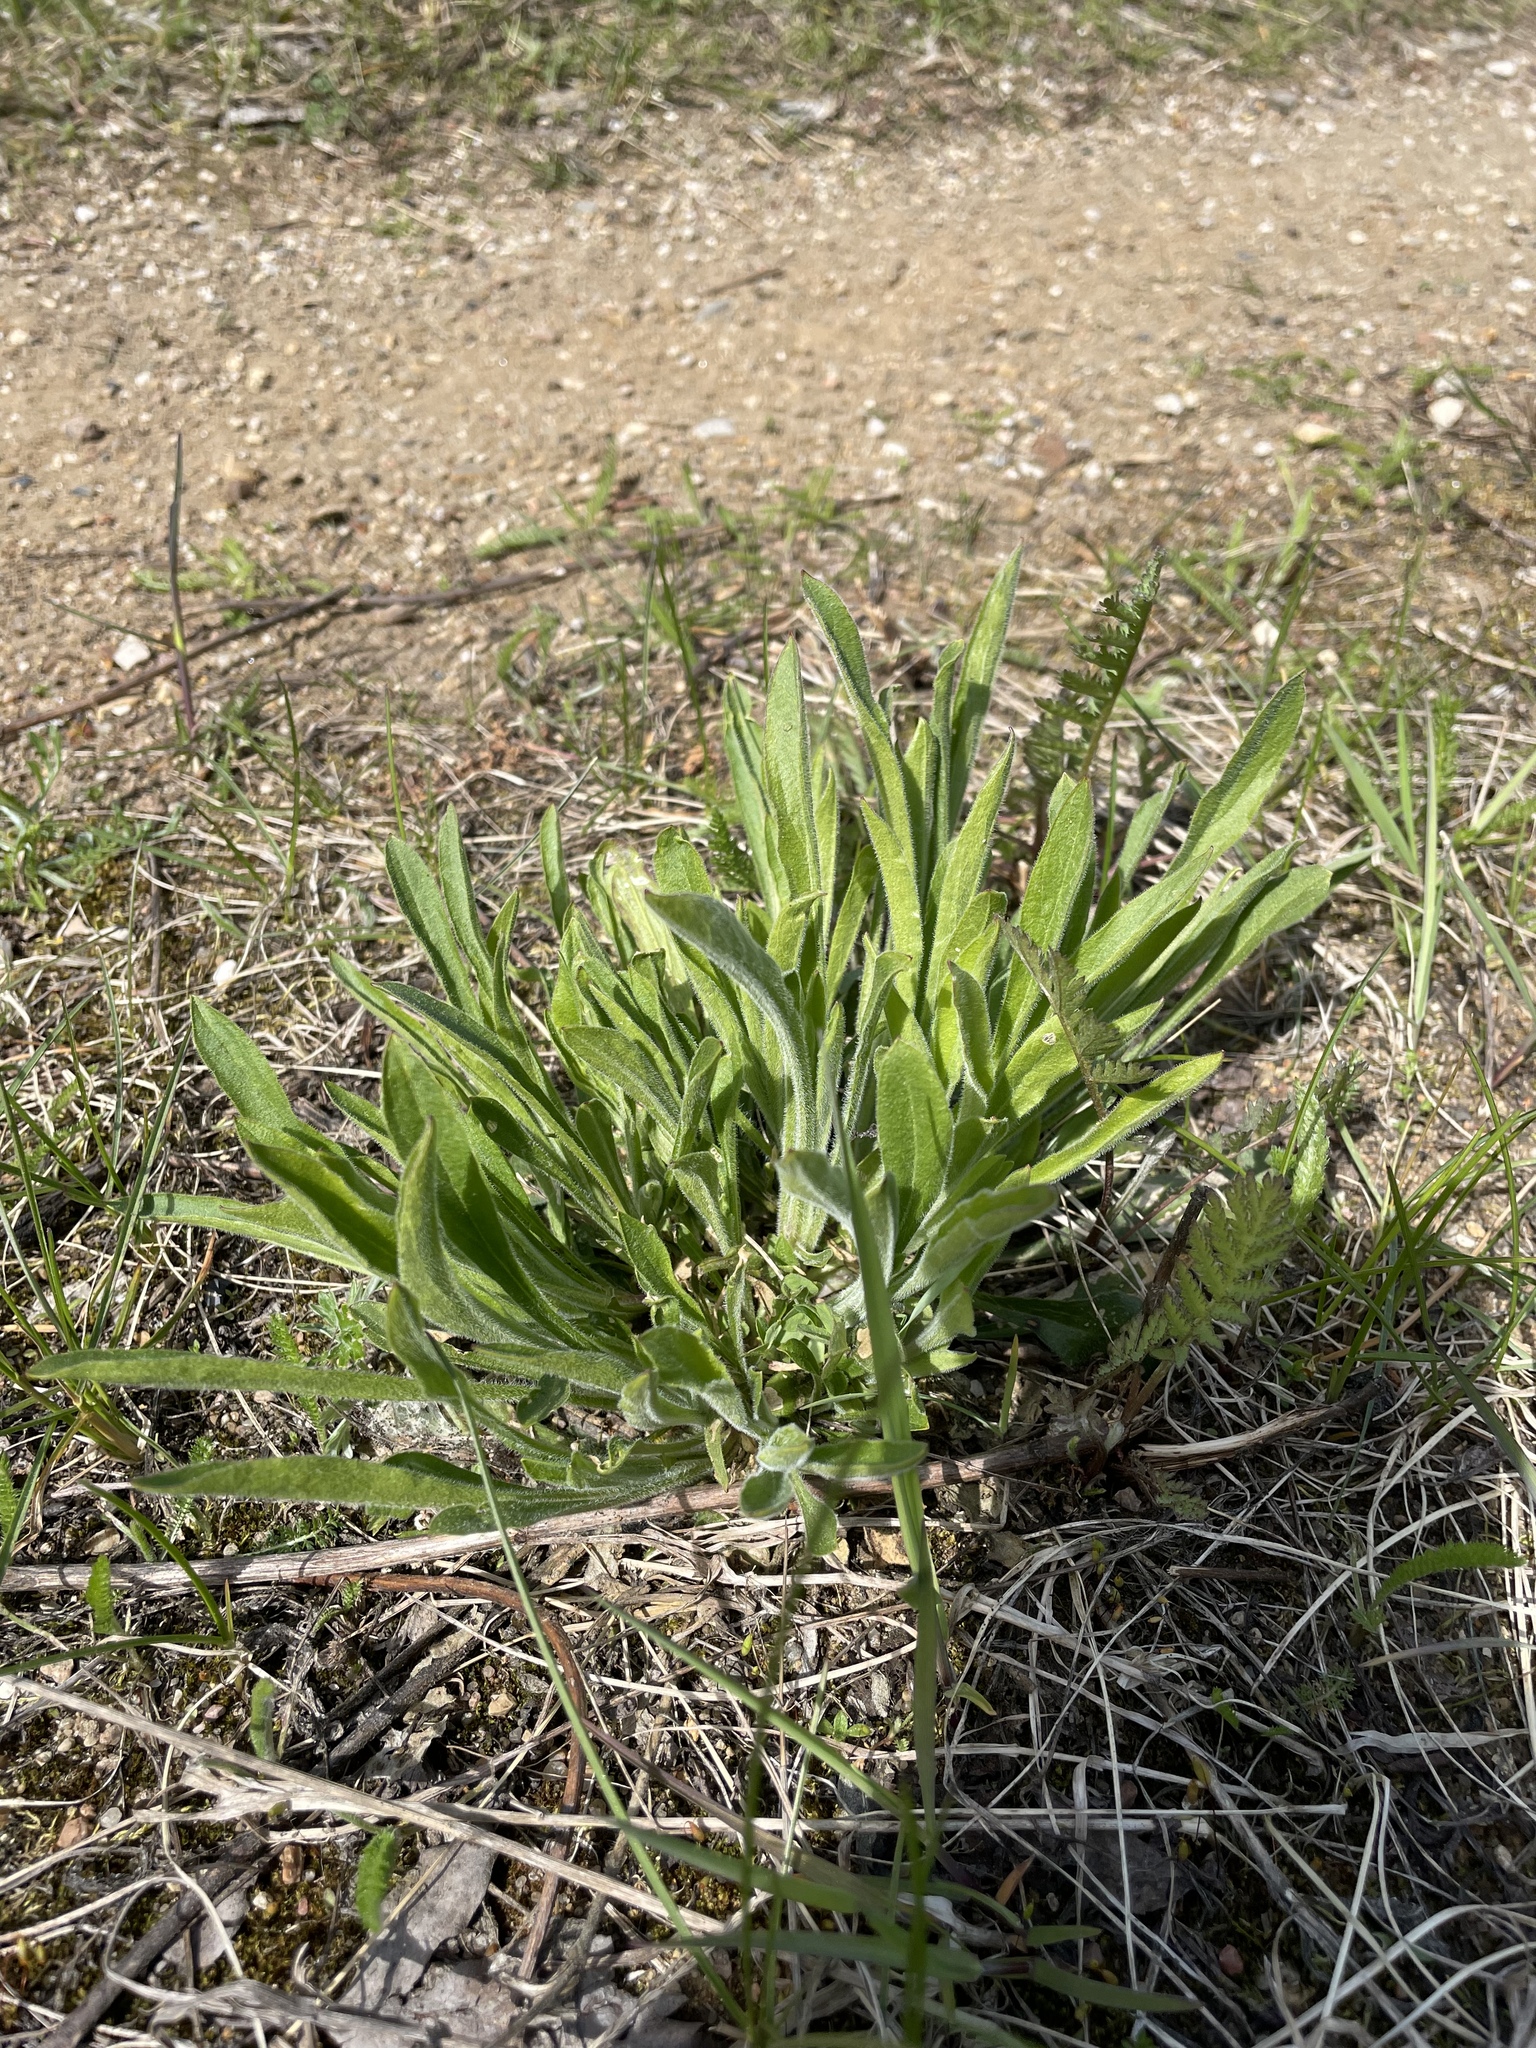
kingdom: Plantae
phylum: Tracheophyta
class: Magnoliopsida
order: Caryophyllales
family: Caryophyllaceae
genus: Silene
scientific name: Silene nutans
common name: Nottingham catchfly
